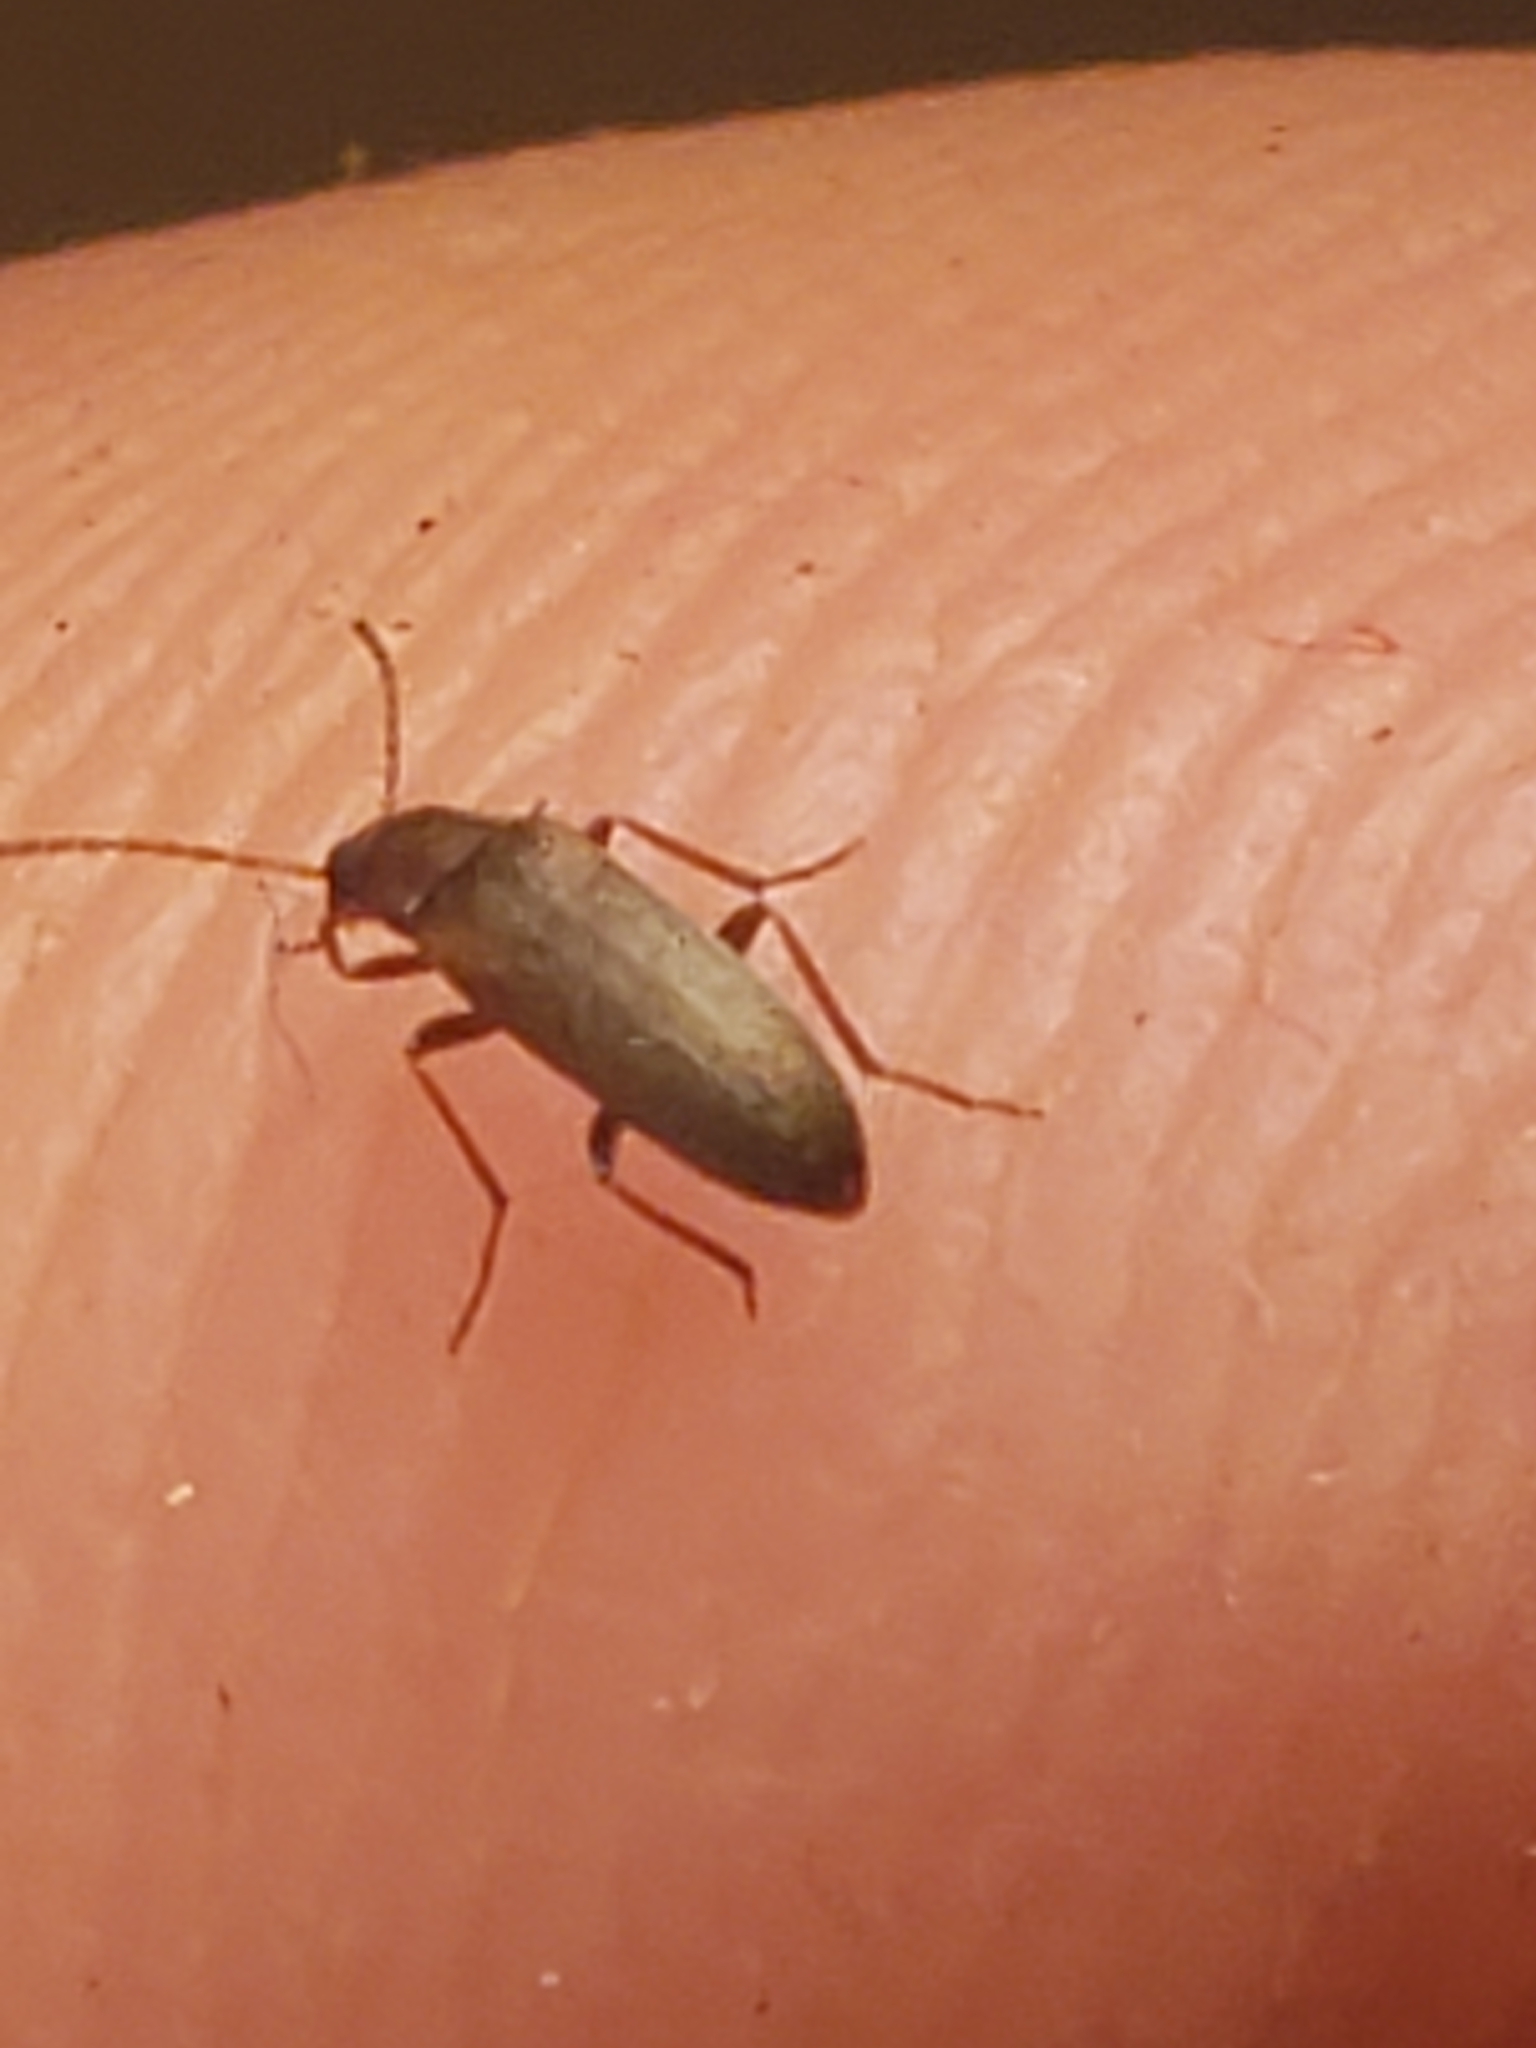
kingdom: Animalia
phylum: Arthropoda
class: Insecta
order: Coleoptera
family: Melandryidae
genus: Microtonus
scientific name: Microtonus sericans
